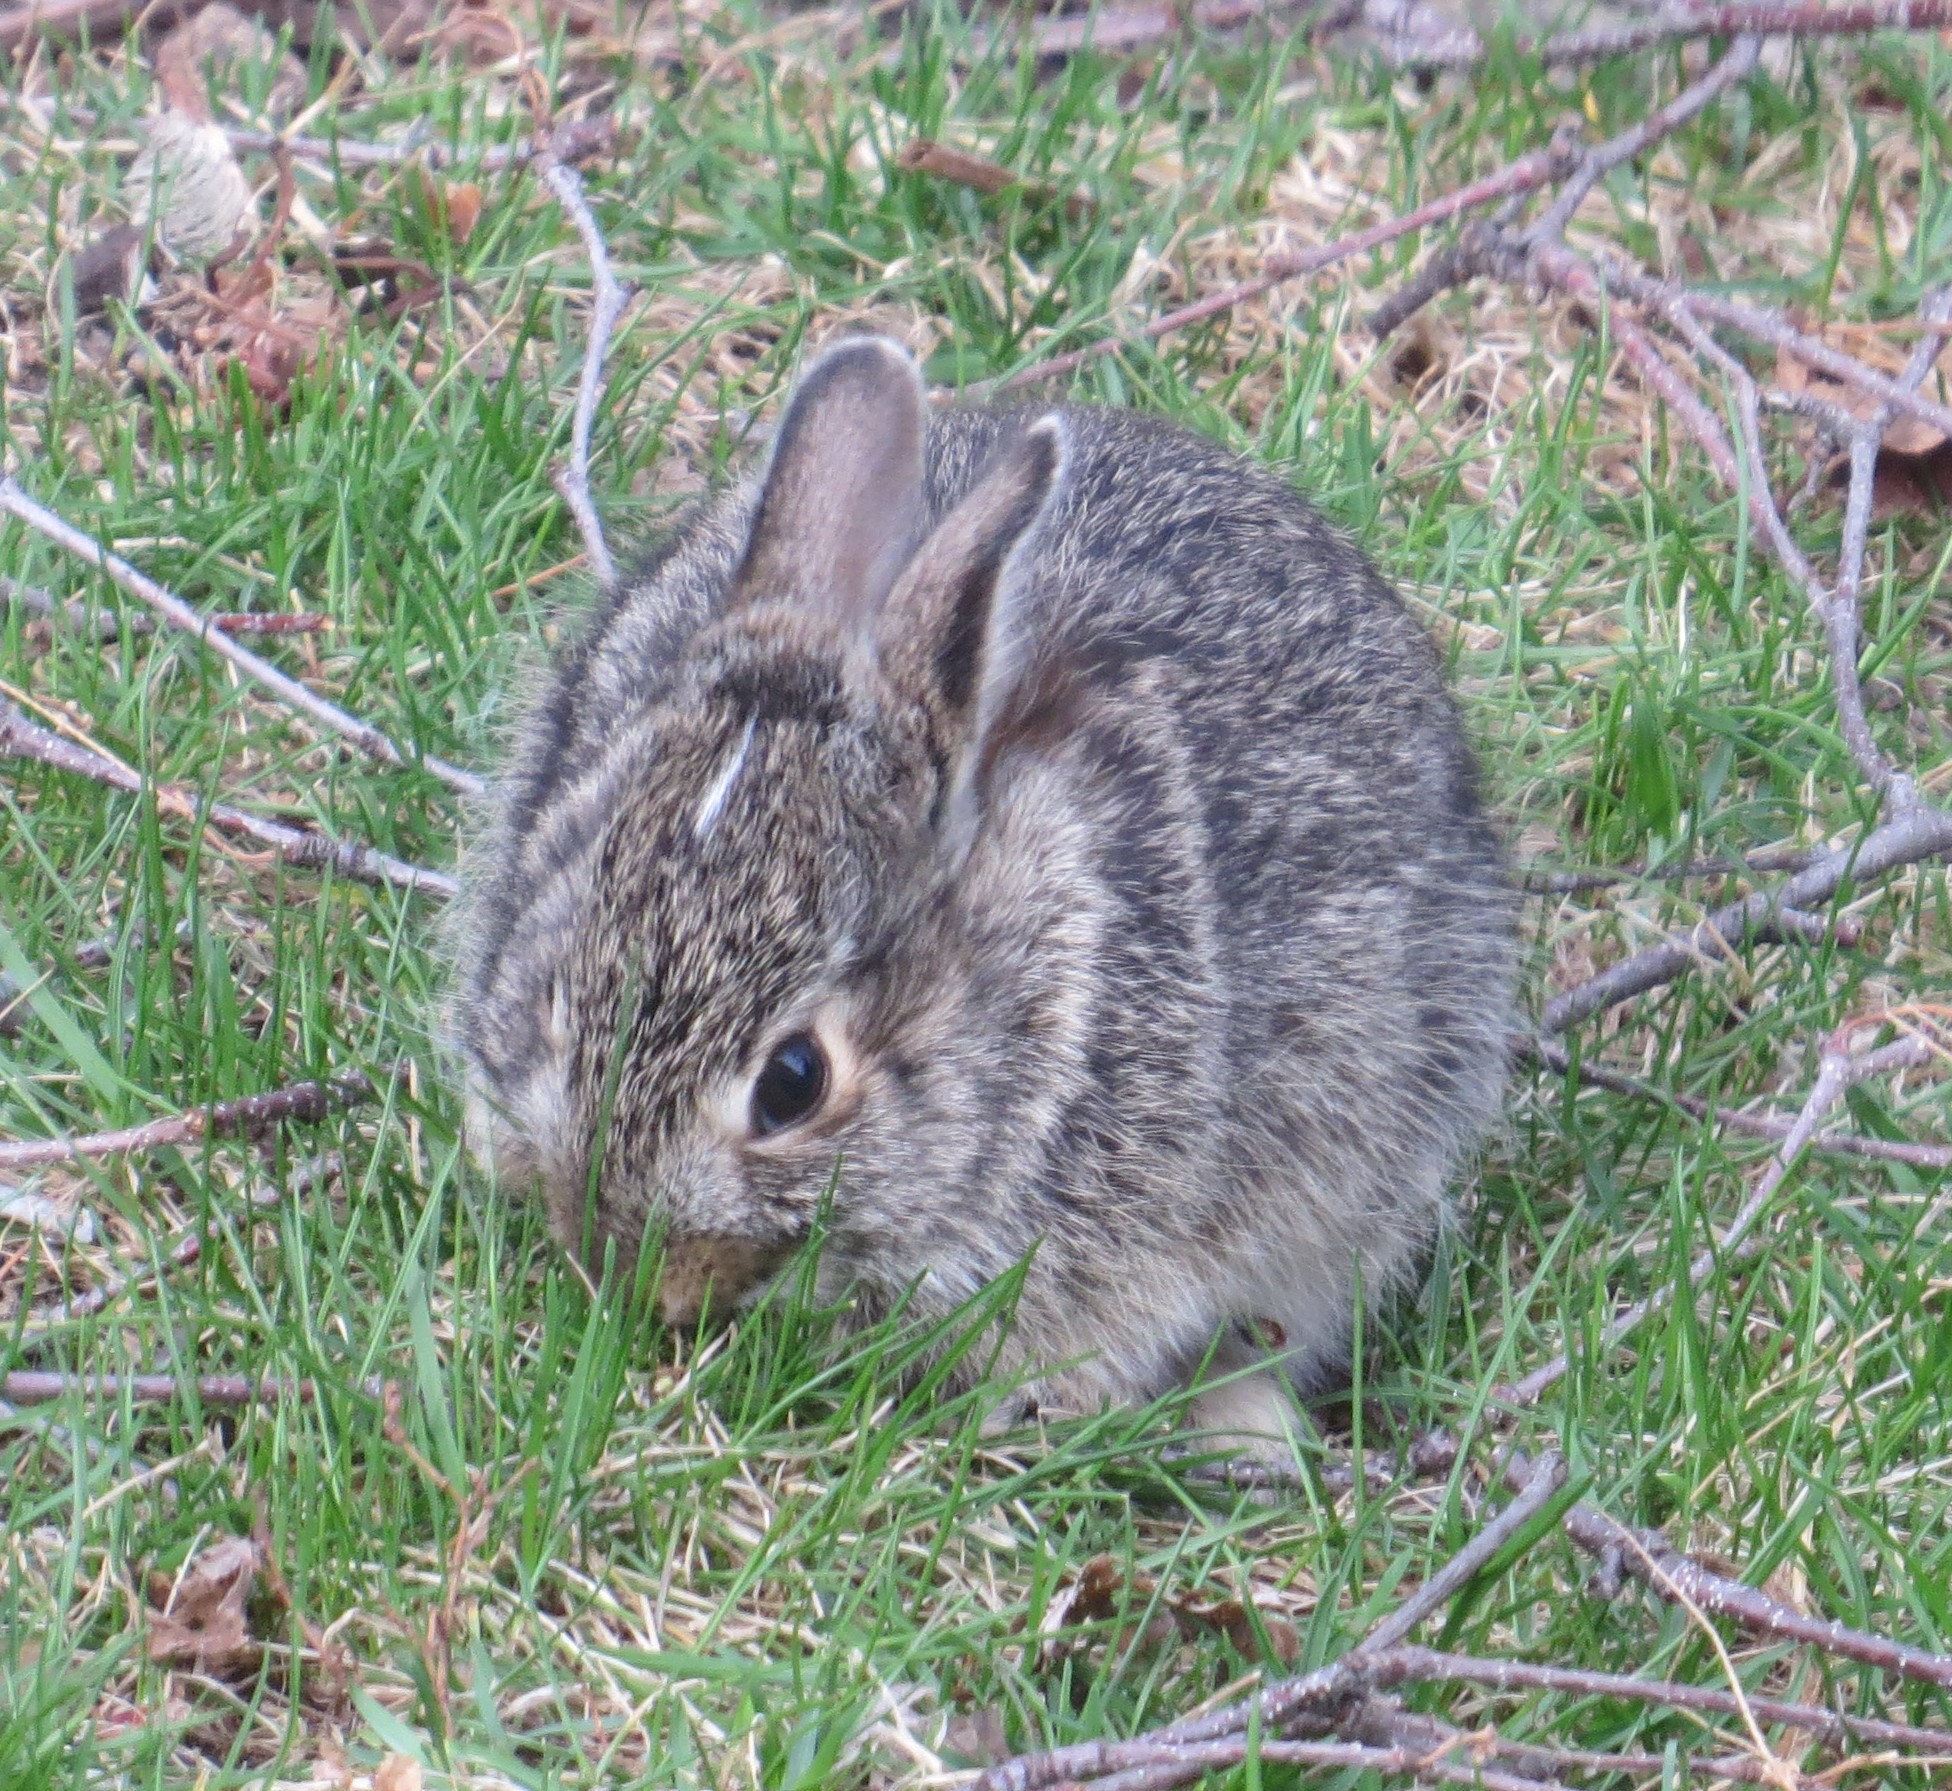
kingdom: Animalia
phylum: Chordata
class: Mammalia
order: Lagomorpha
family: Leporidae
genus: Sylvilagus
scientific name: Sylvilagus floridanus
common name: Eastern cottontail
